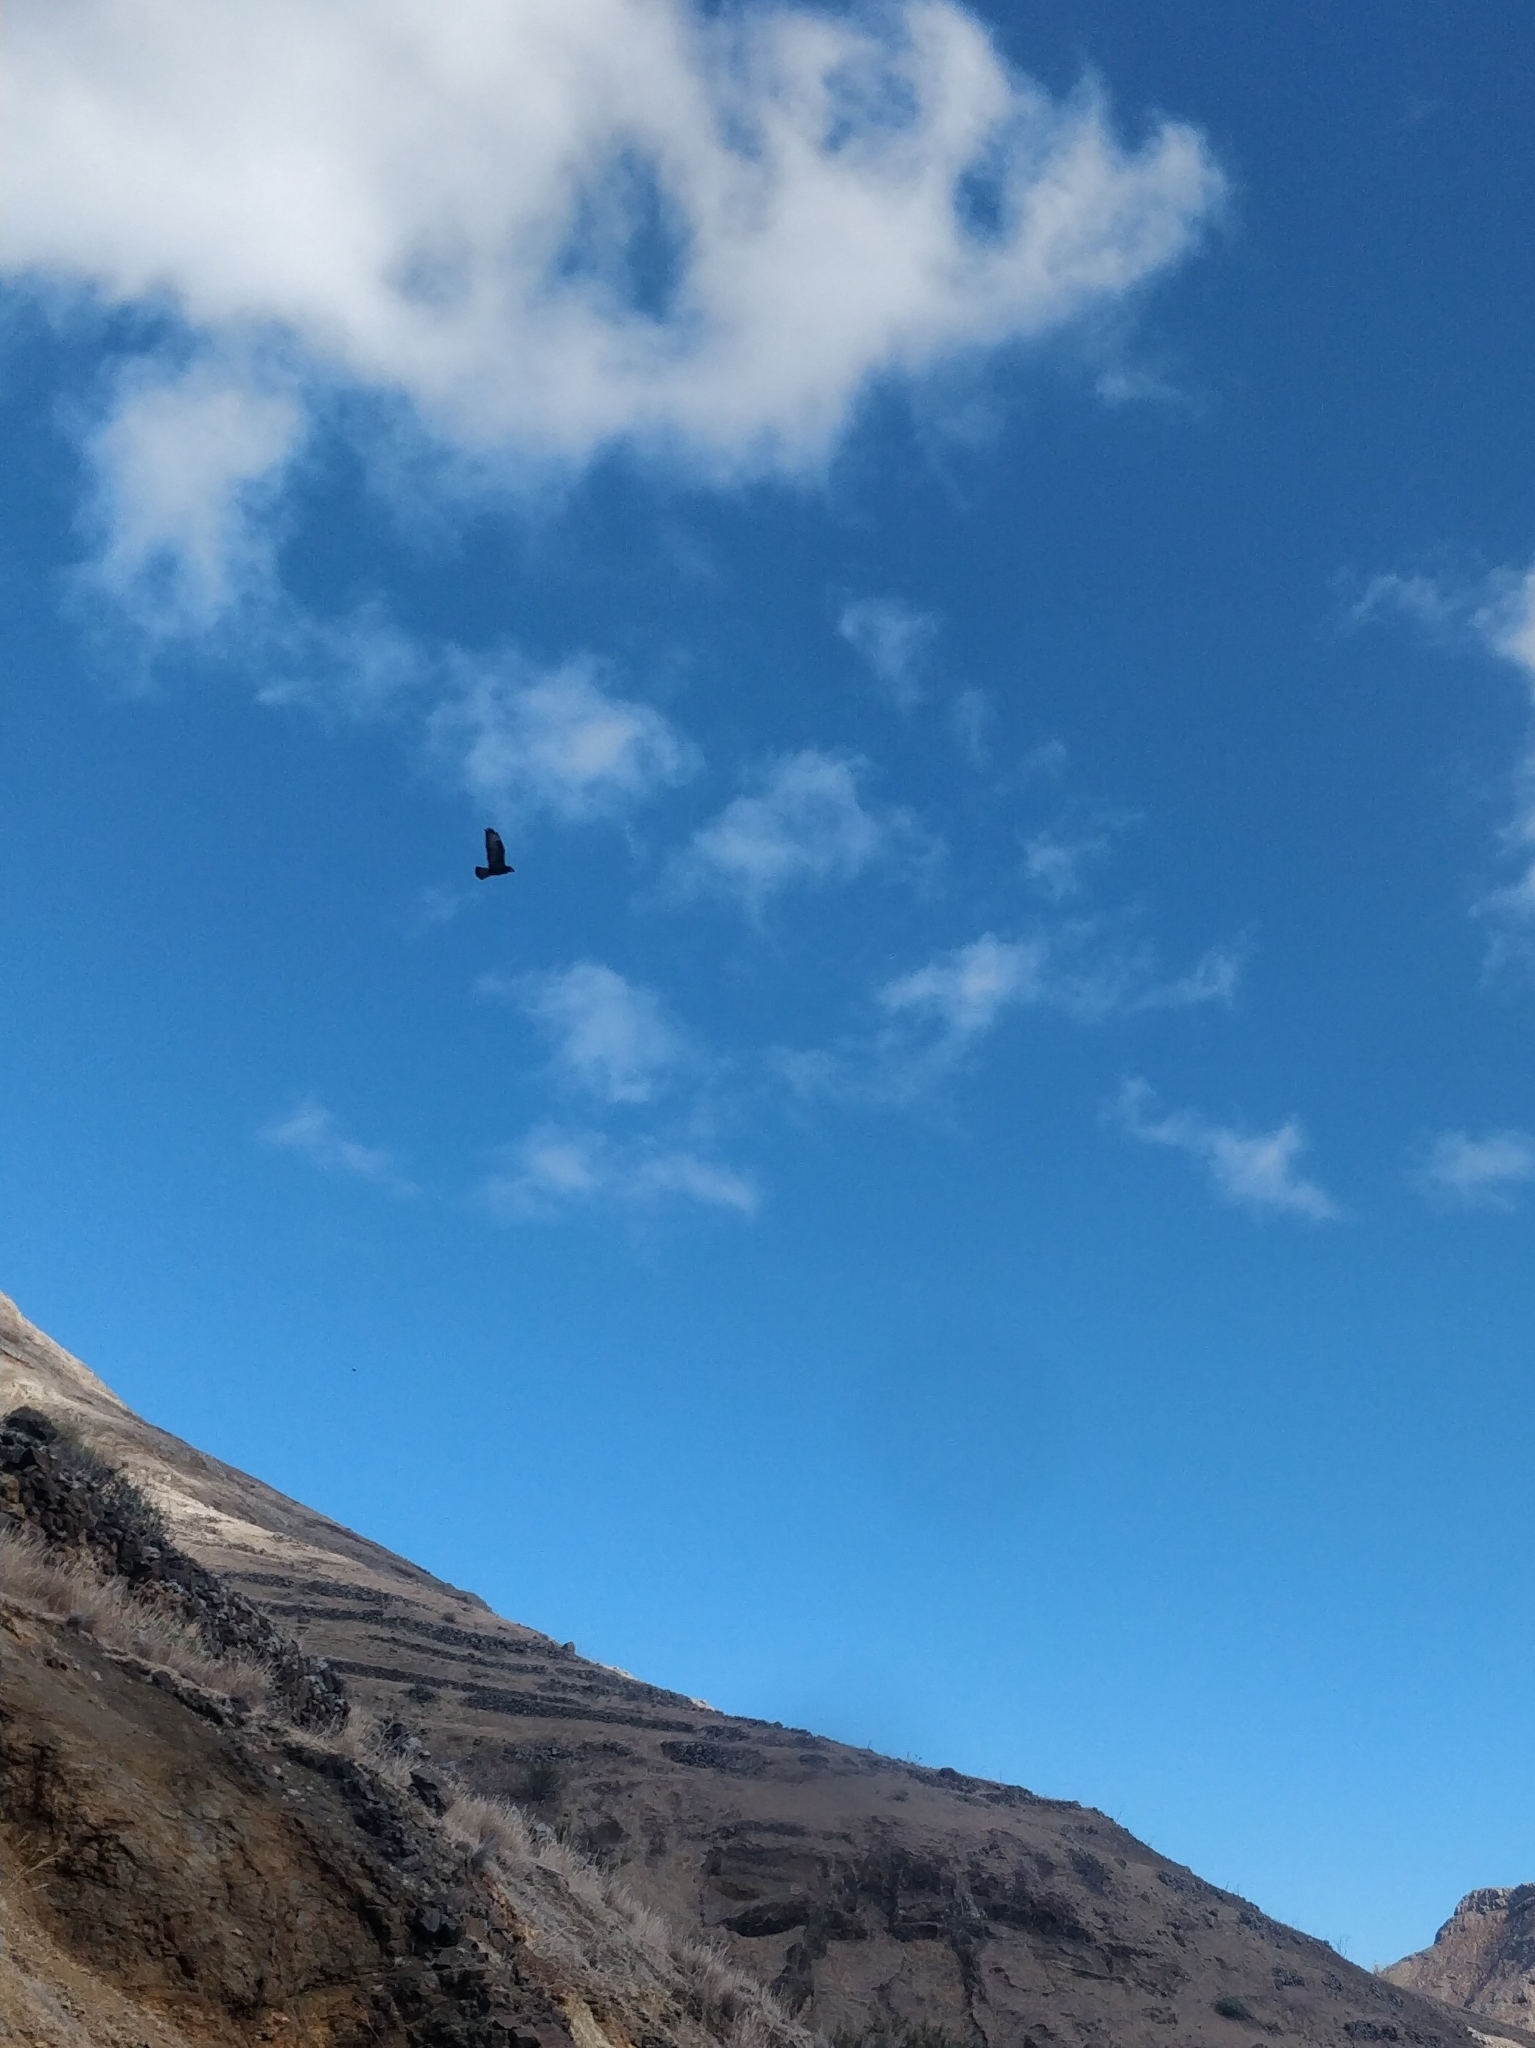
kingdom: Animalia
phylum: Chordata
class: Aves
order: Accipitriformes
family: Accipitridae
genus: Buteo
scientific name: Buteo buteo
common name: Common buzzard
